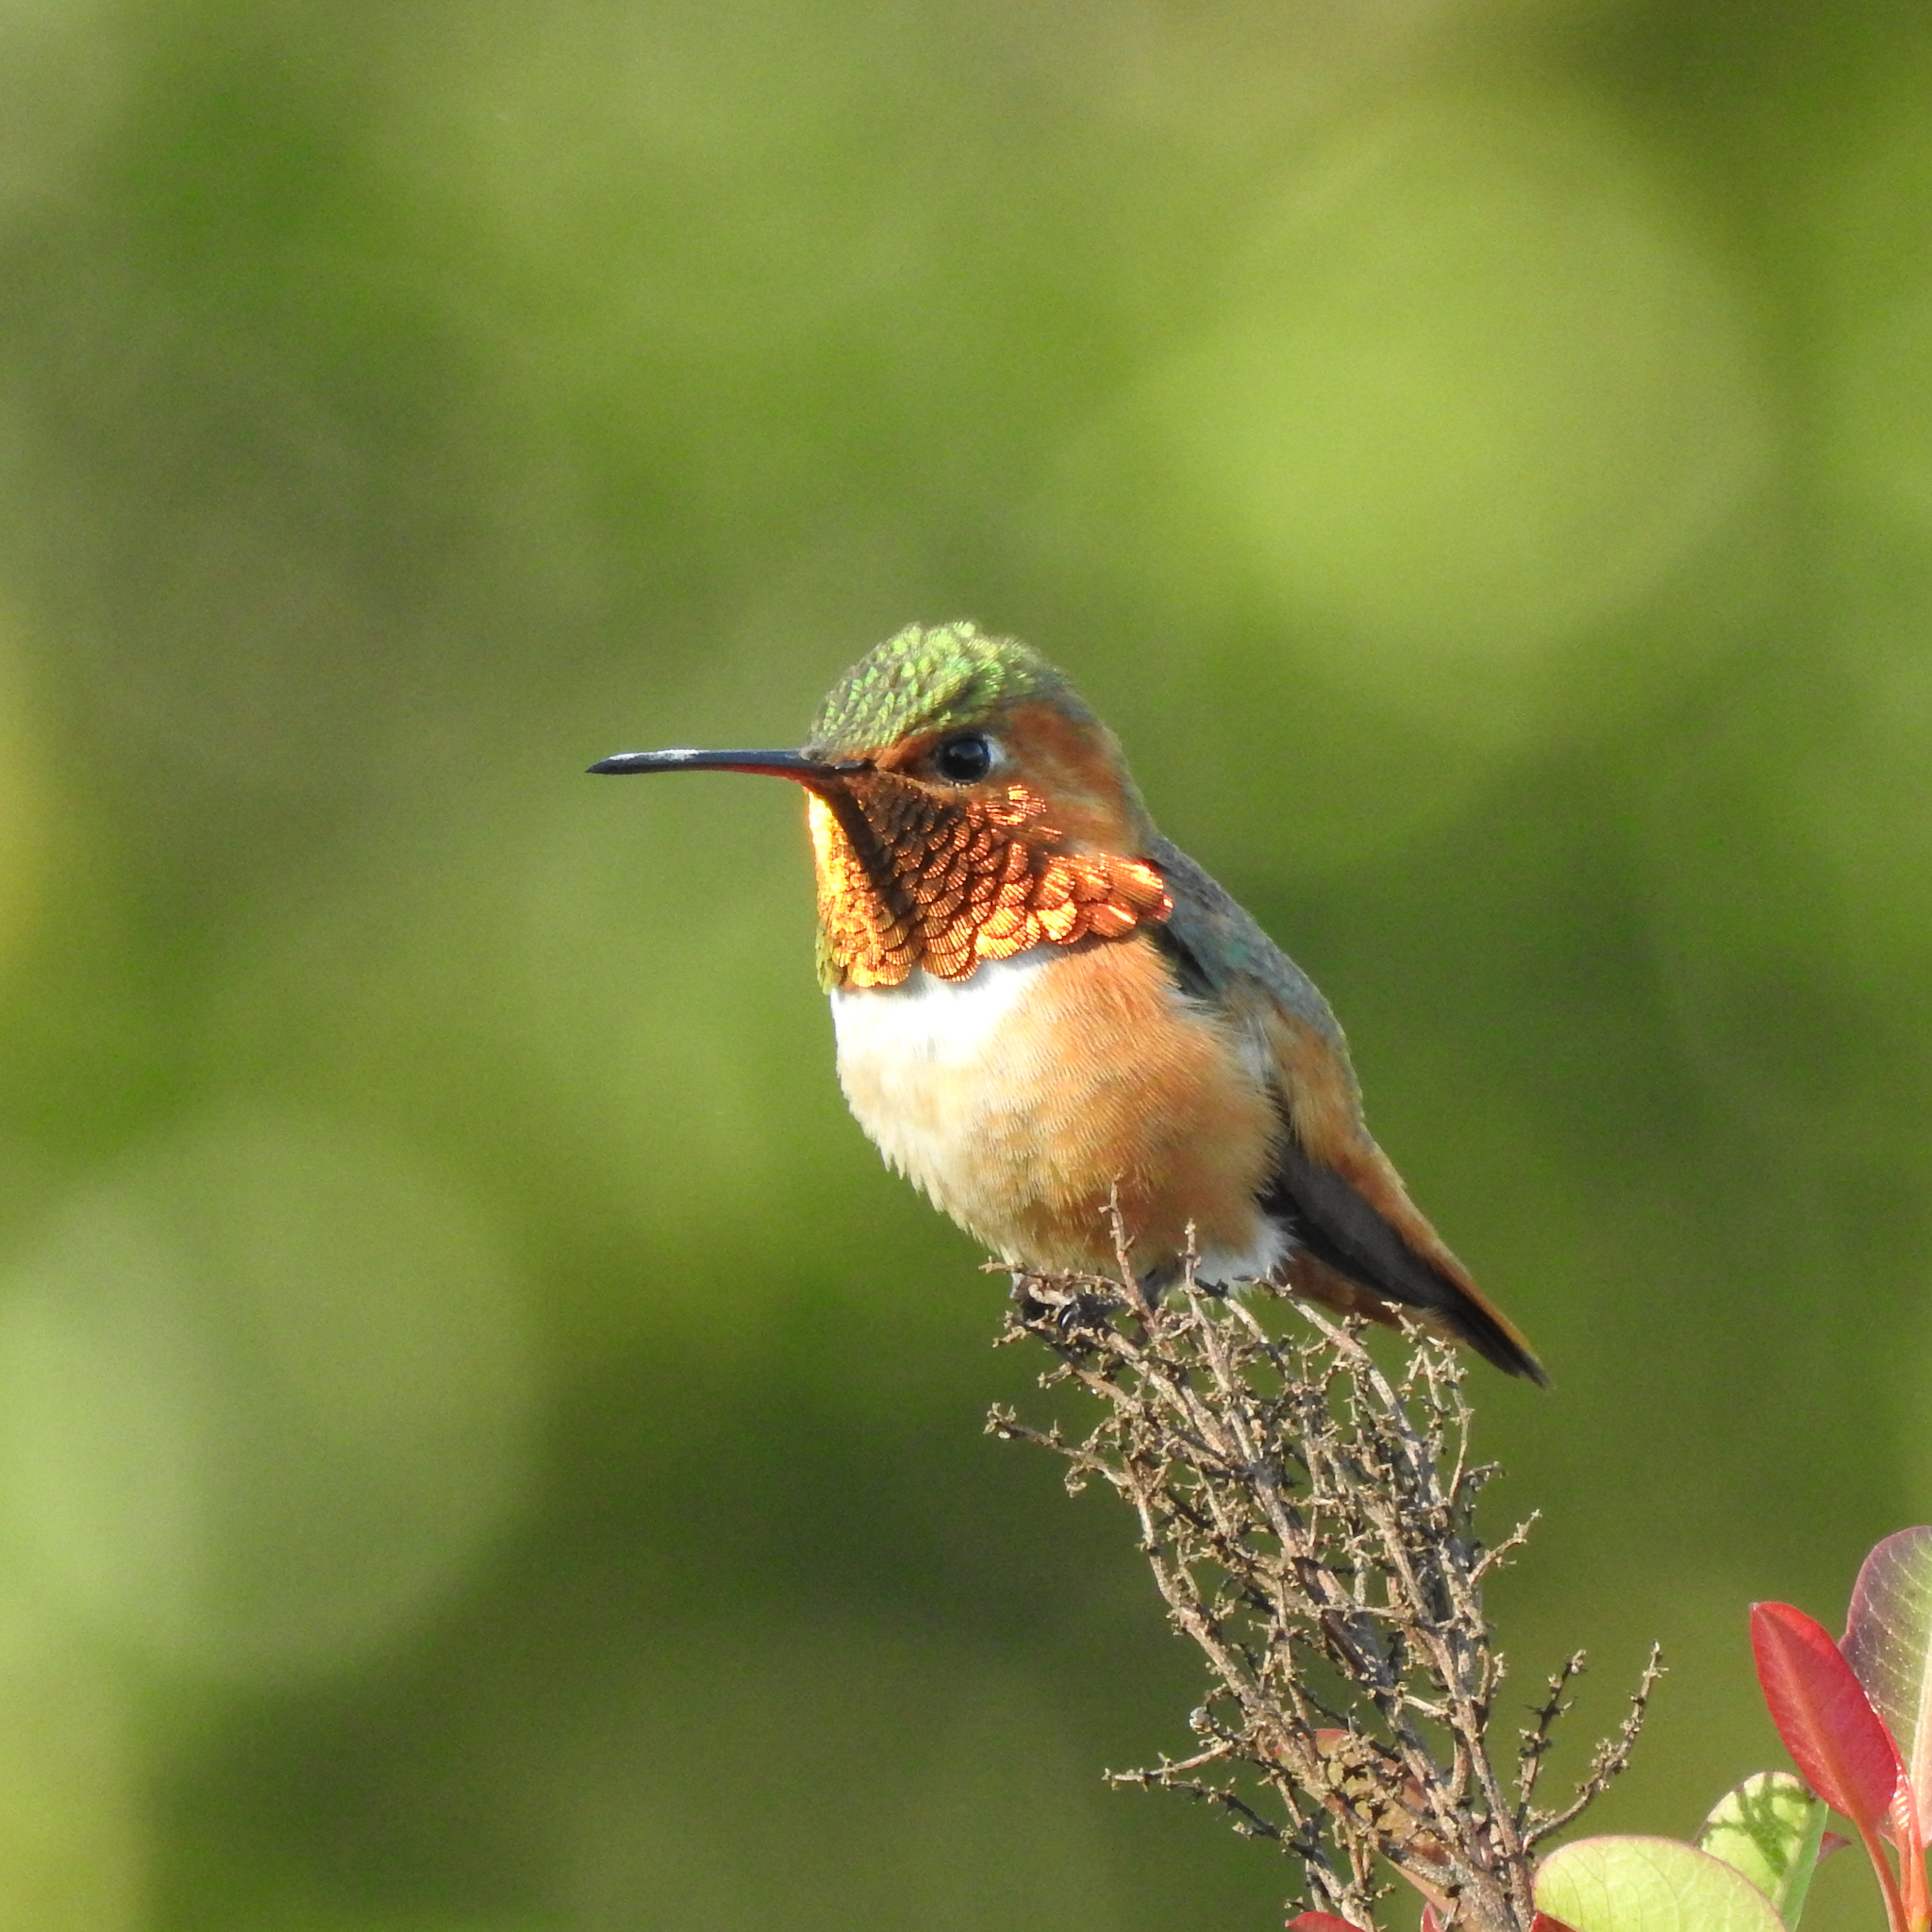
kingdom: Animalia
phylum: Chordata
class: Aves
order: Apodiformes
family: Trochilidae
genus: Selasphorus
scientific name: Selasphorus sasin
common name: Allen's hummingbird
